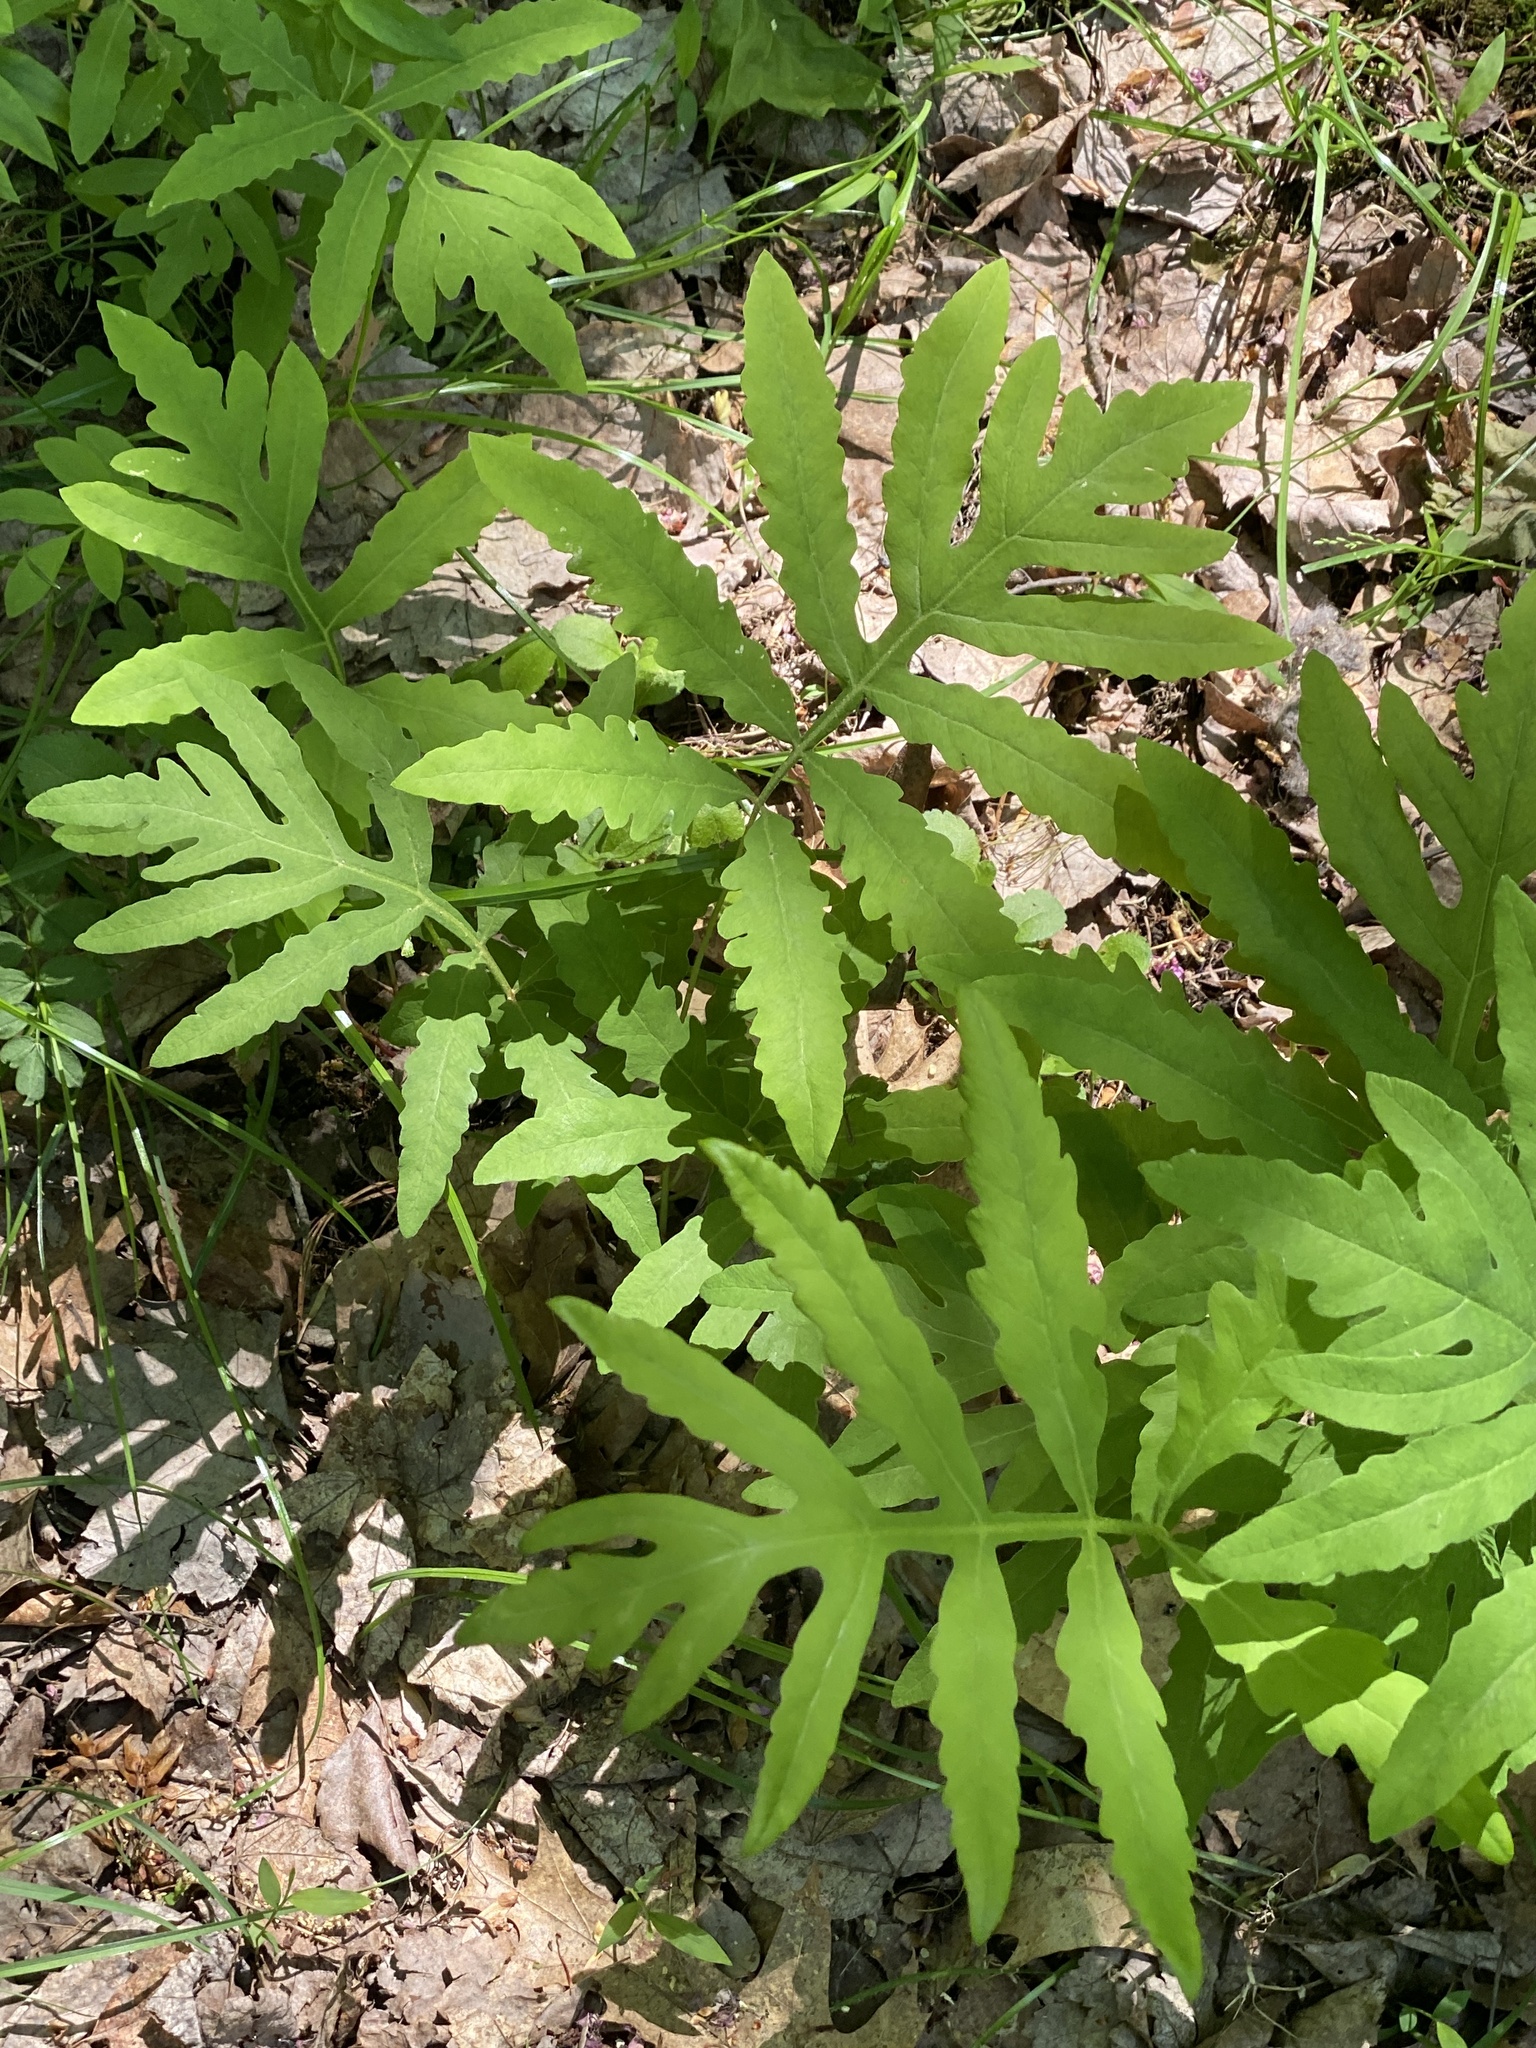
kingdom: Plantae
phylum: Tracheophyta
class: Polypodiopsida
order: Polypodiales
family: Onocleaceae
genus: Onoclea
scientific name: Onoclea sensibilis
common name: Sensitive fern
